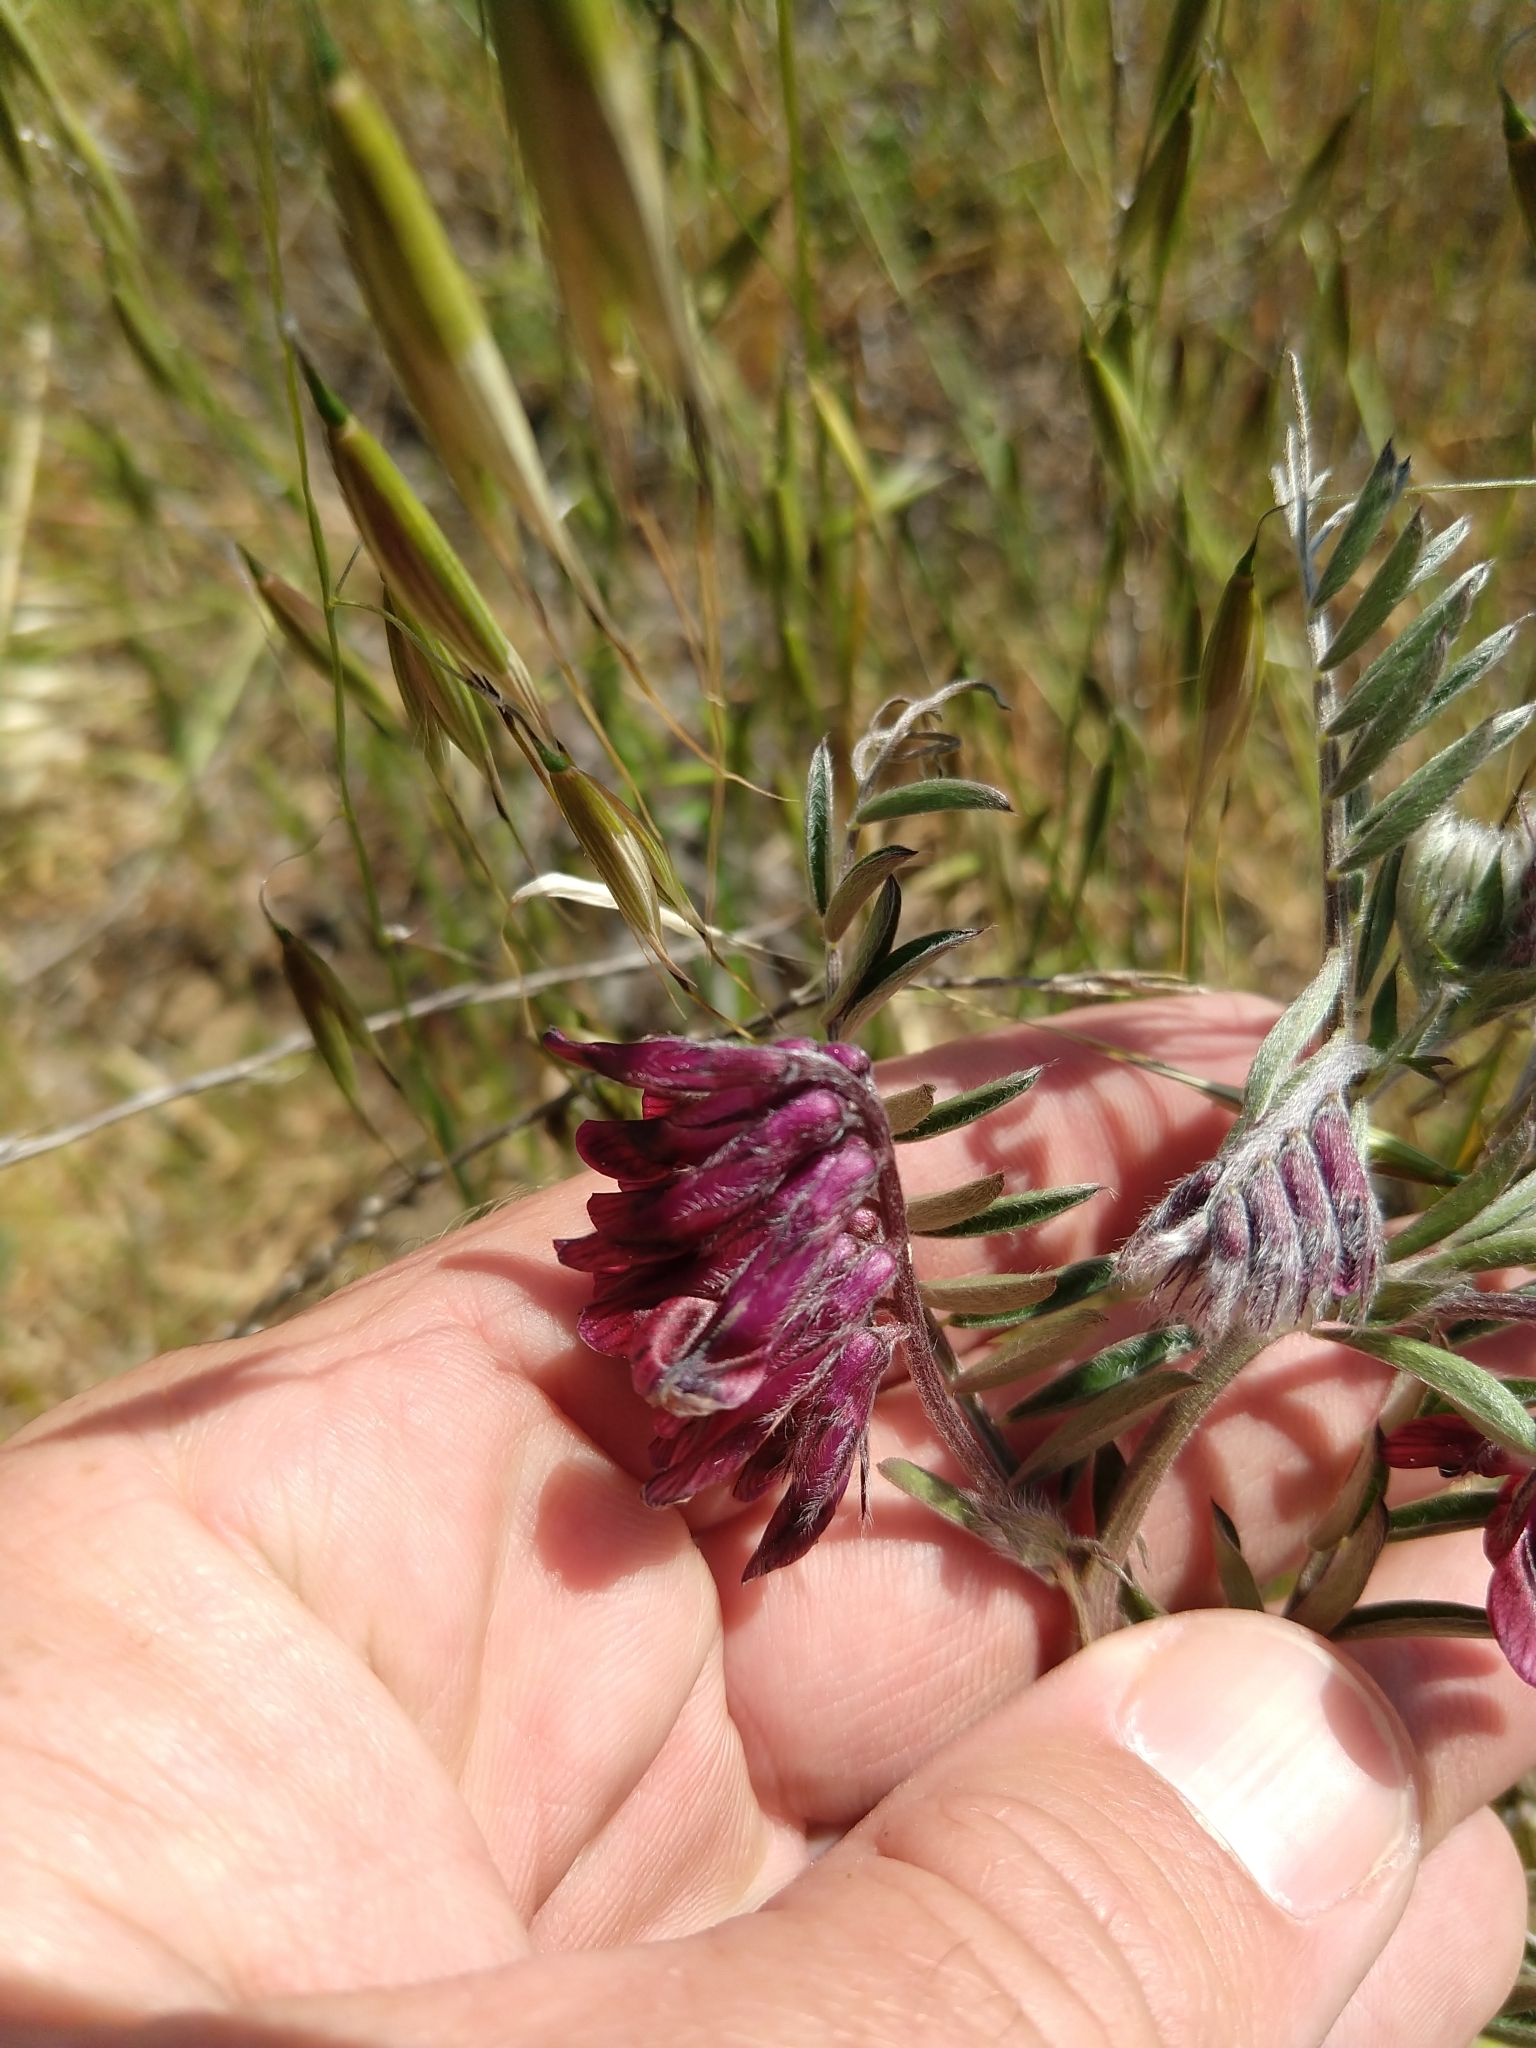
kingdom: Plantae
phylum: Tracheophyta
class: Magnoliopsida
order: Fabales
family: Fabaceae
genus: Vicia
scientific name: Vicia benghalensis
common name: Purple vetch
